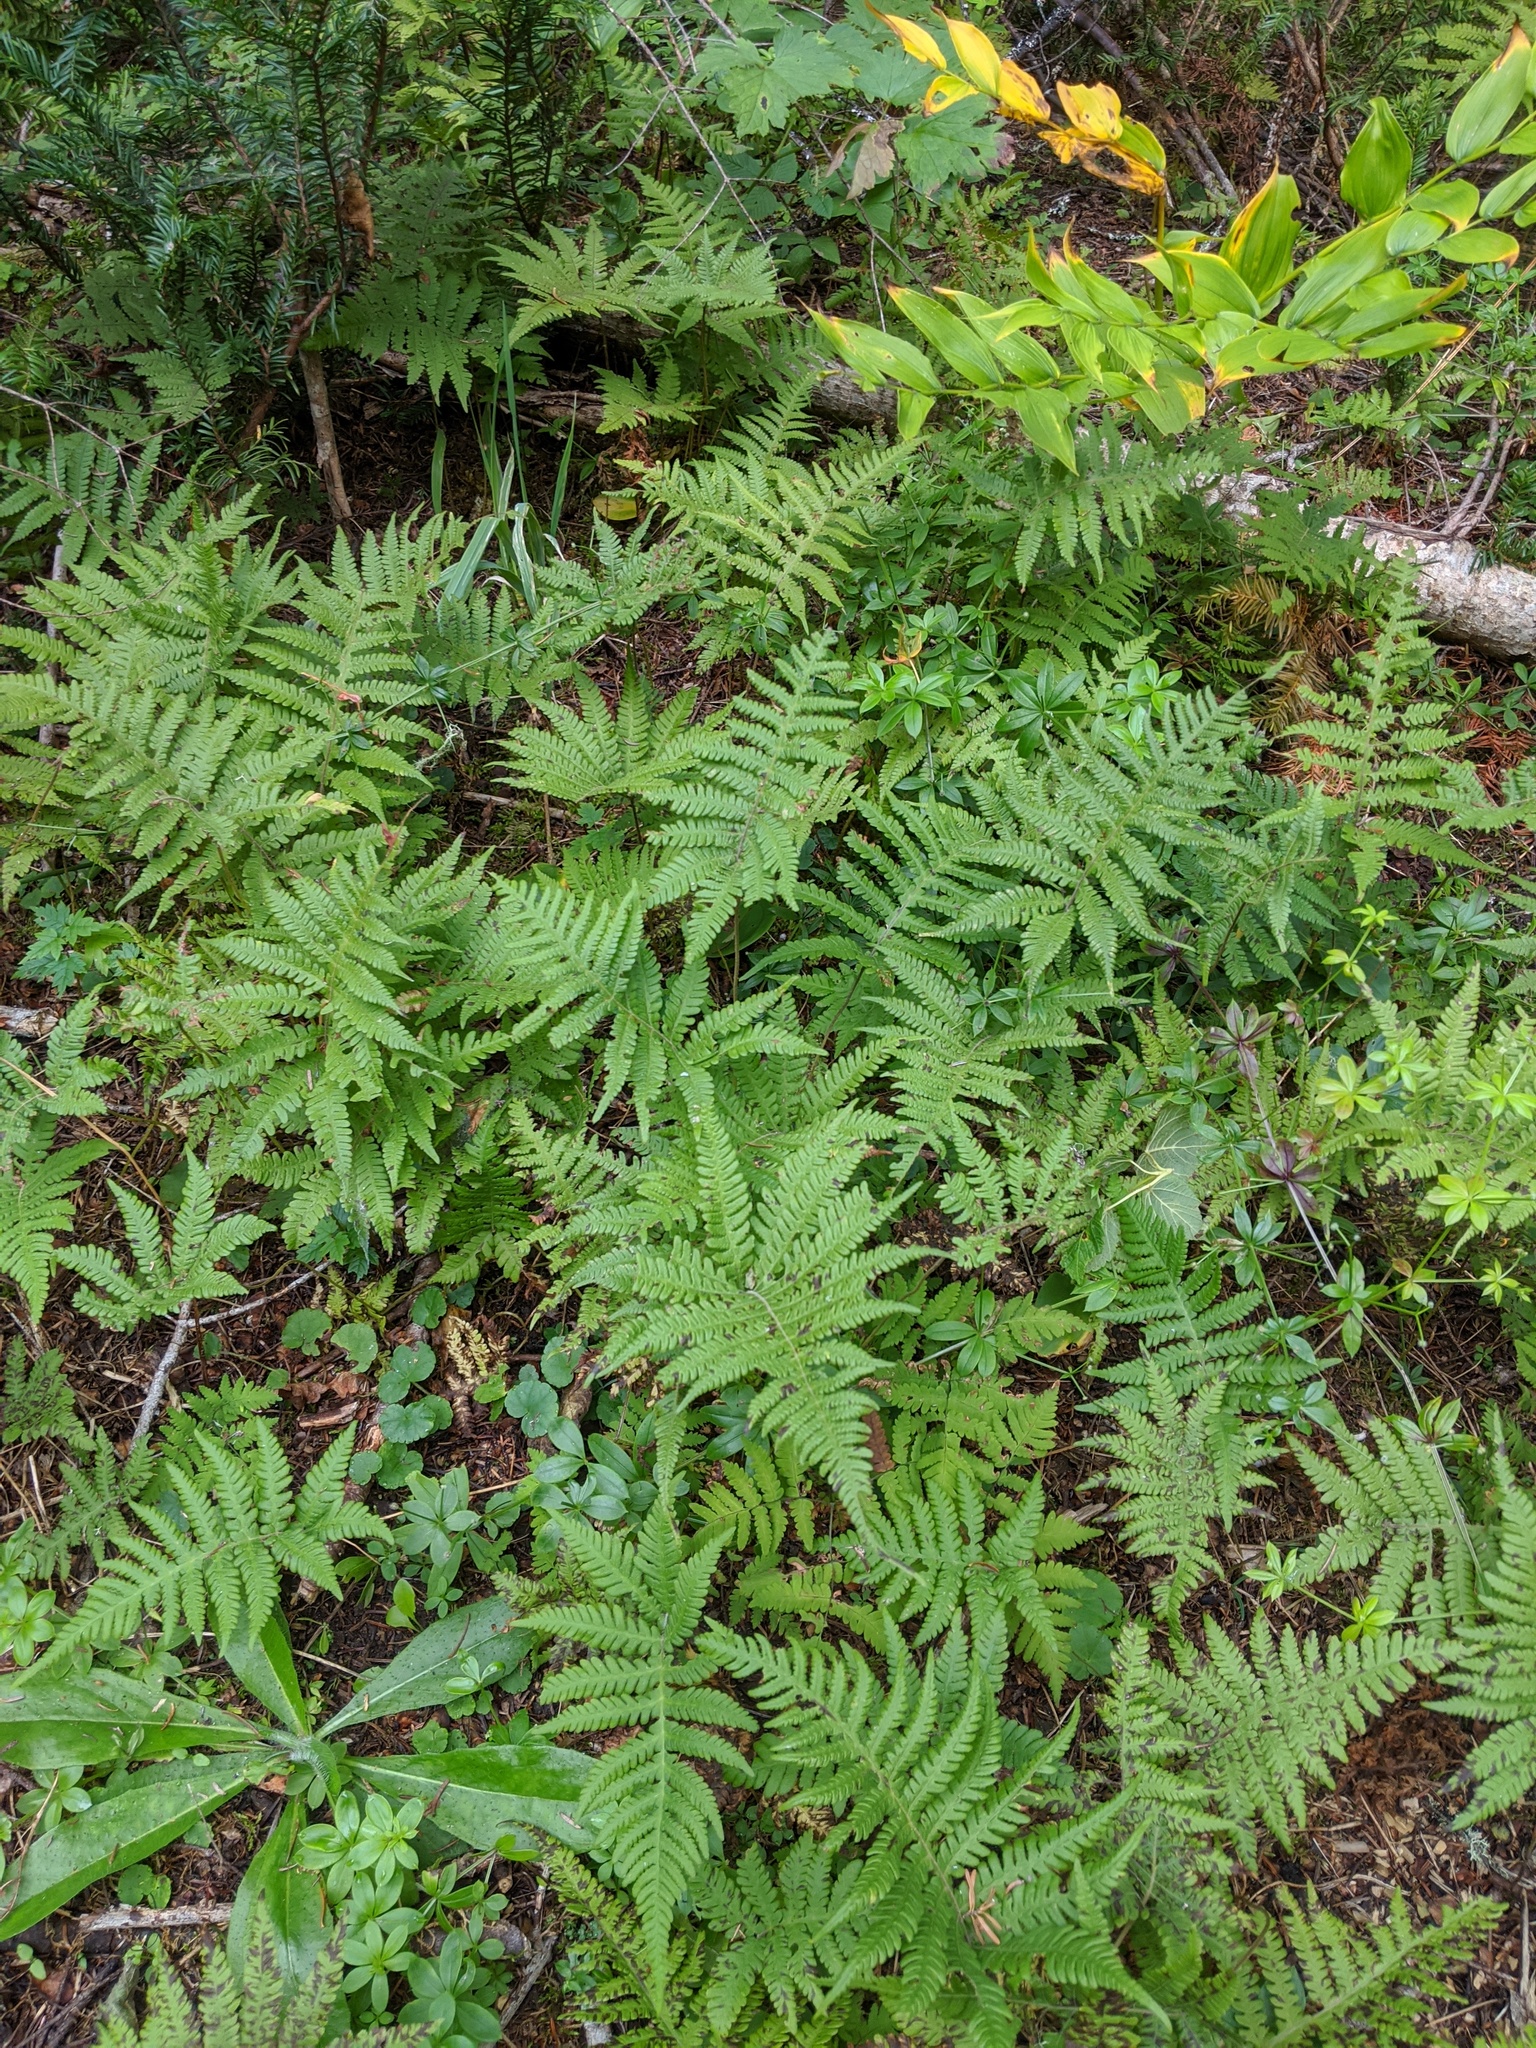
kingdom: Plantae
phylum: Tracheophyta
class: Polypodiopsida
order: Polypodiales
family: Thelypteridaceae
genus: Phegopteris
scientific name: Phegopteris connectilis
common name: Beech fern
